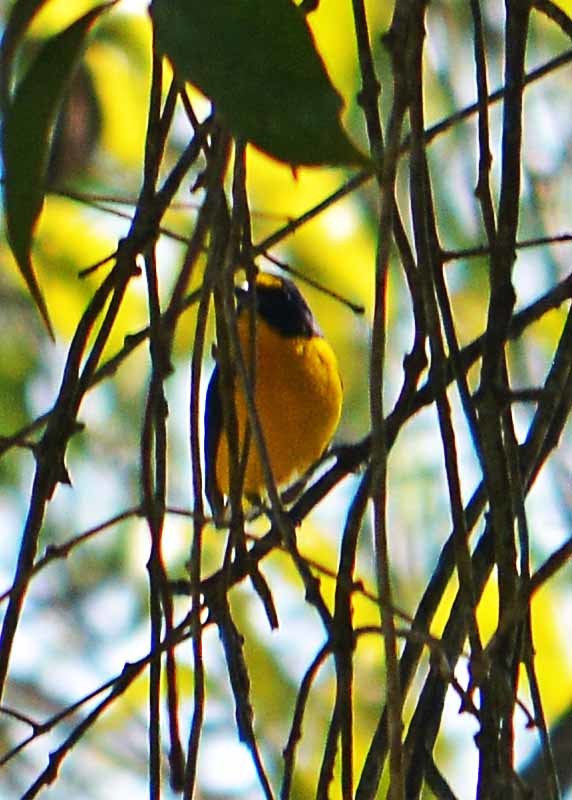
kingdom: Animalia
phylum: Chordata
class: Aves
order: Passeriformes
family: Fringillidae
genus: Euphonia
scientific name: Euphonia hirundinacea
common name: Yellow-throated euphonia
